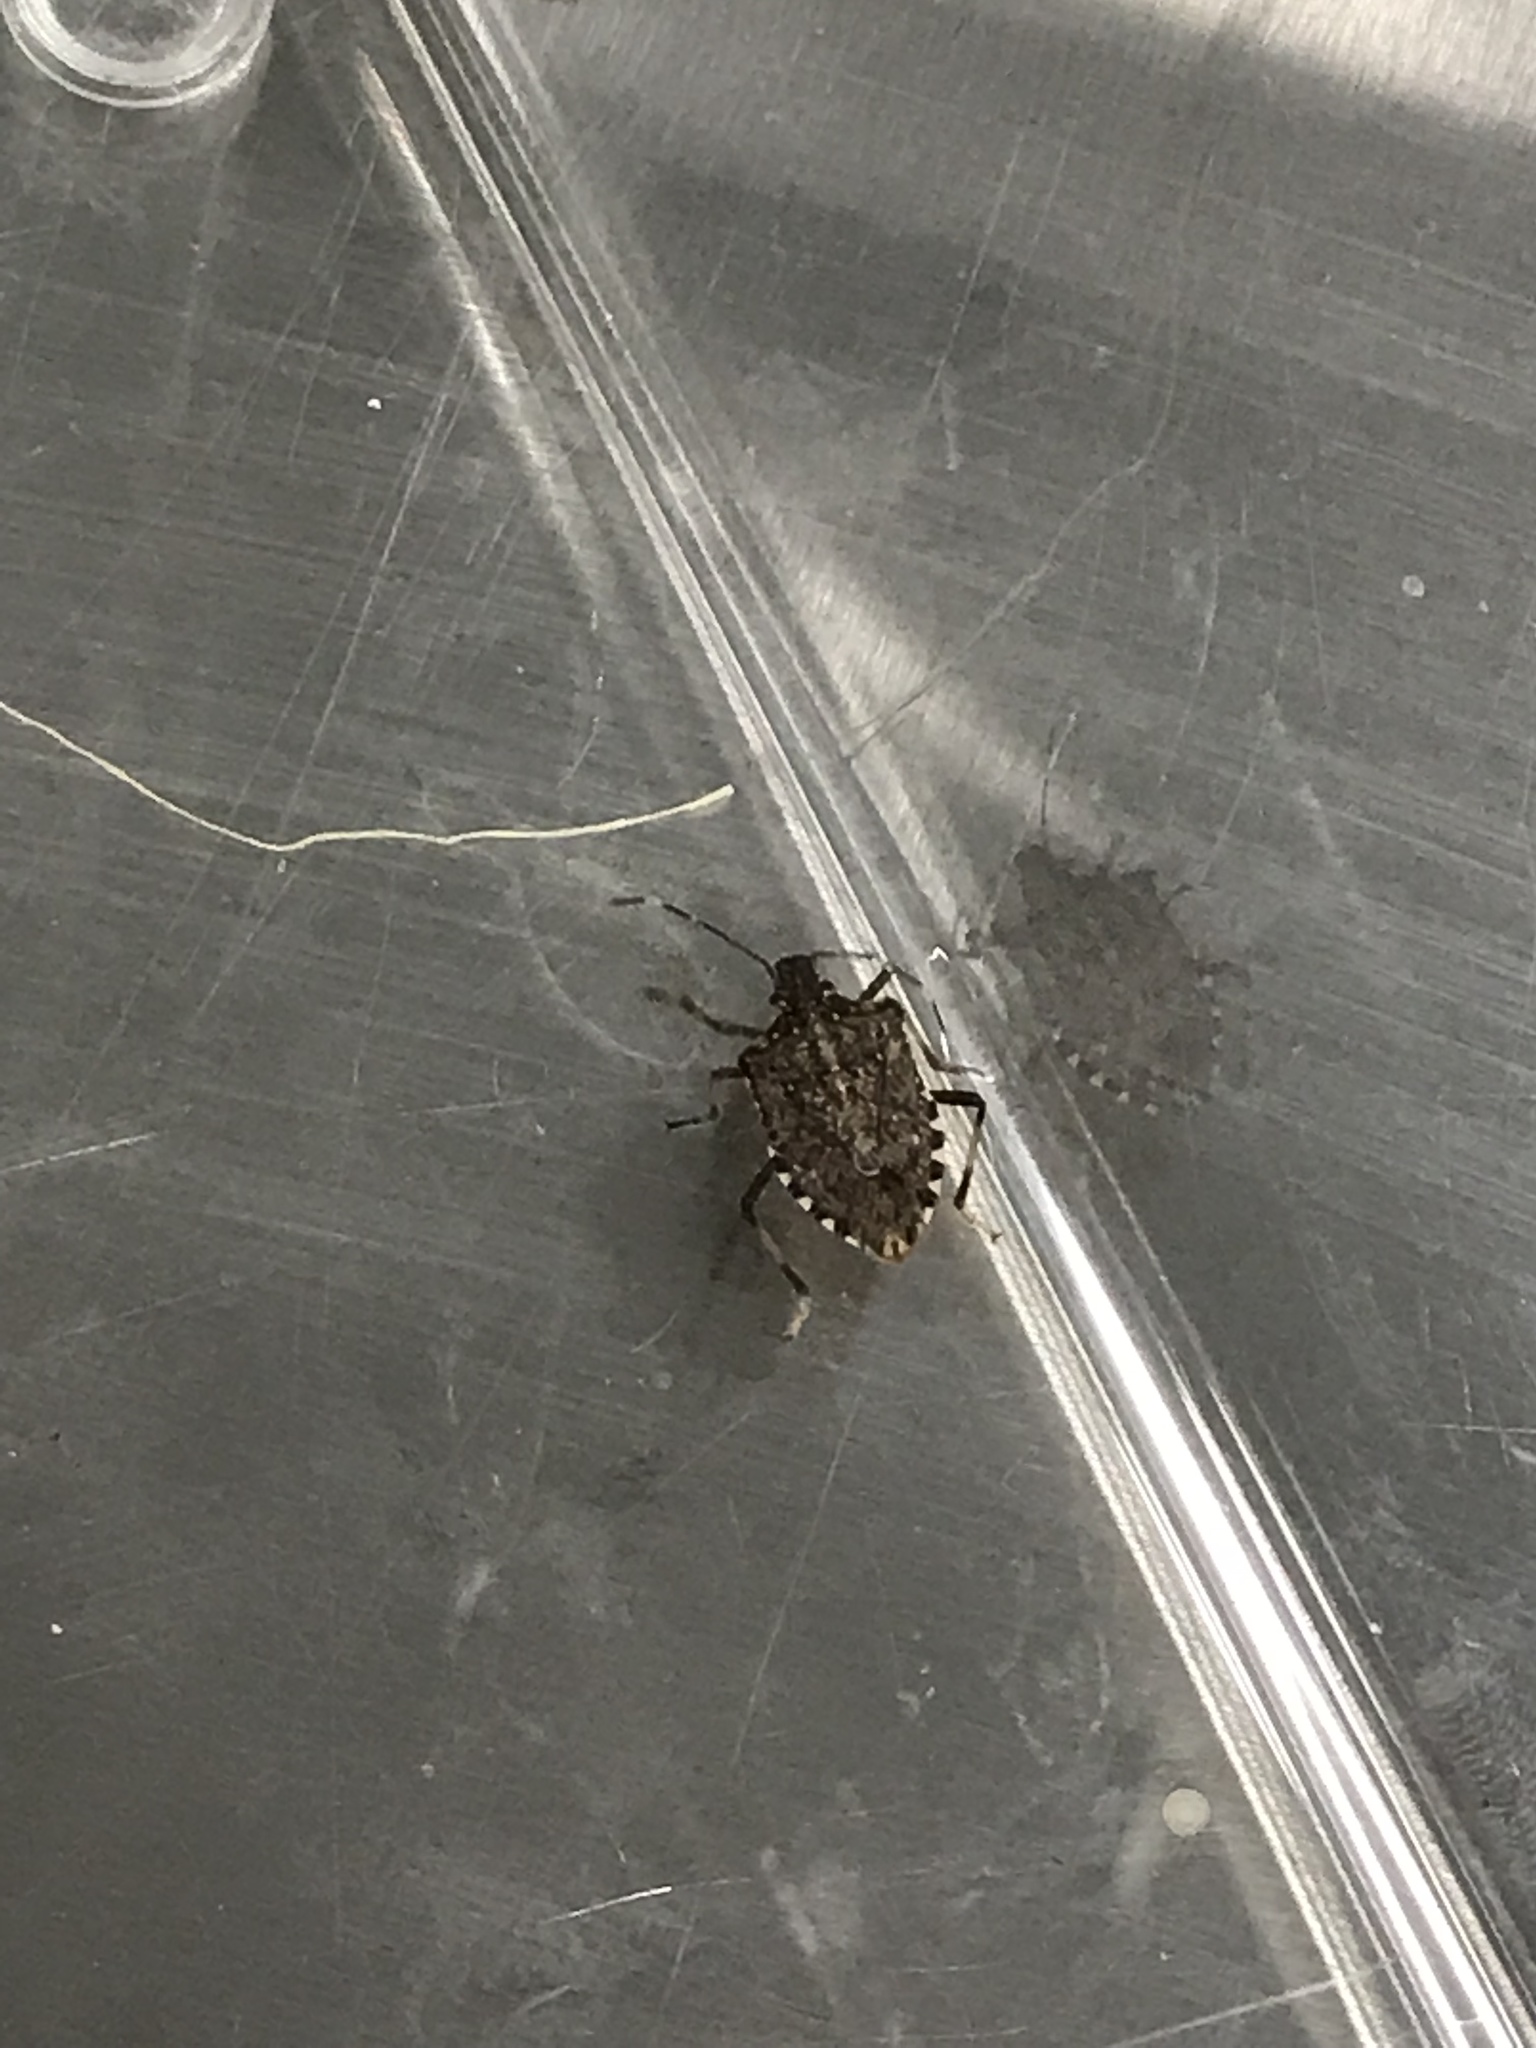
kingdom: Animalia
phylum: Arthropoda
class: Insecta
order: Hemiptera
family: Pentatomidae
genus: Halyomorpha
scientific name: Halyomorpha halys
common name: Brown marmorated stink bug
